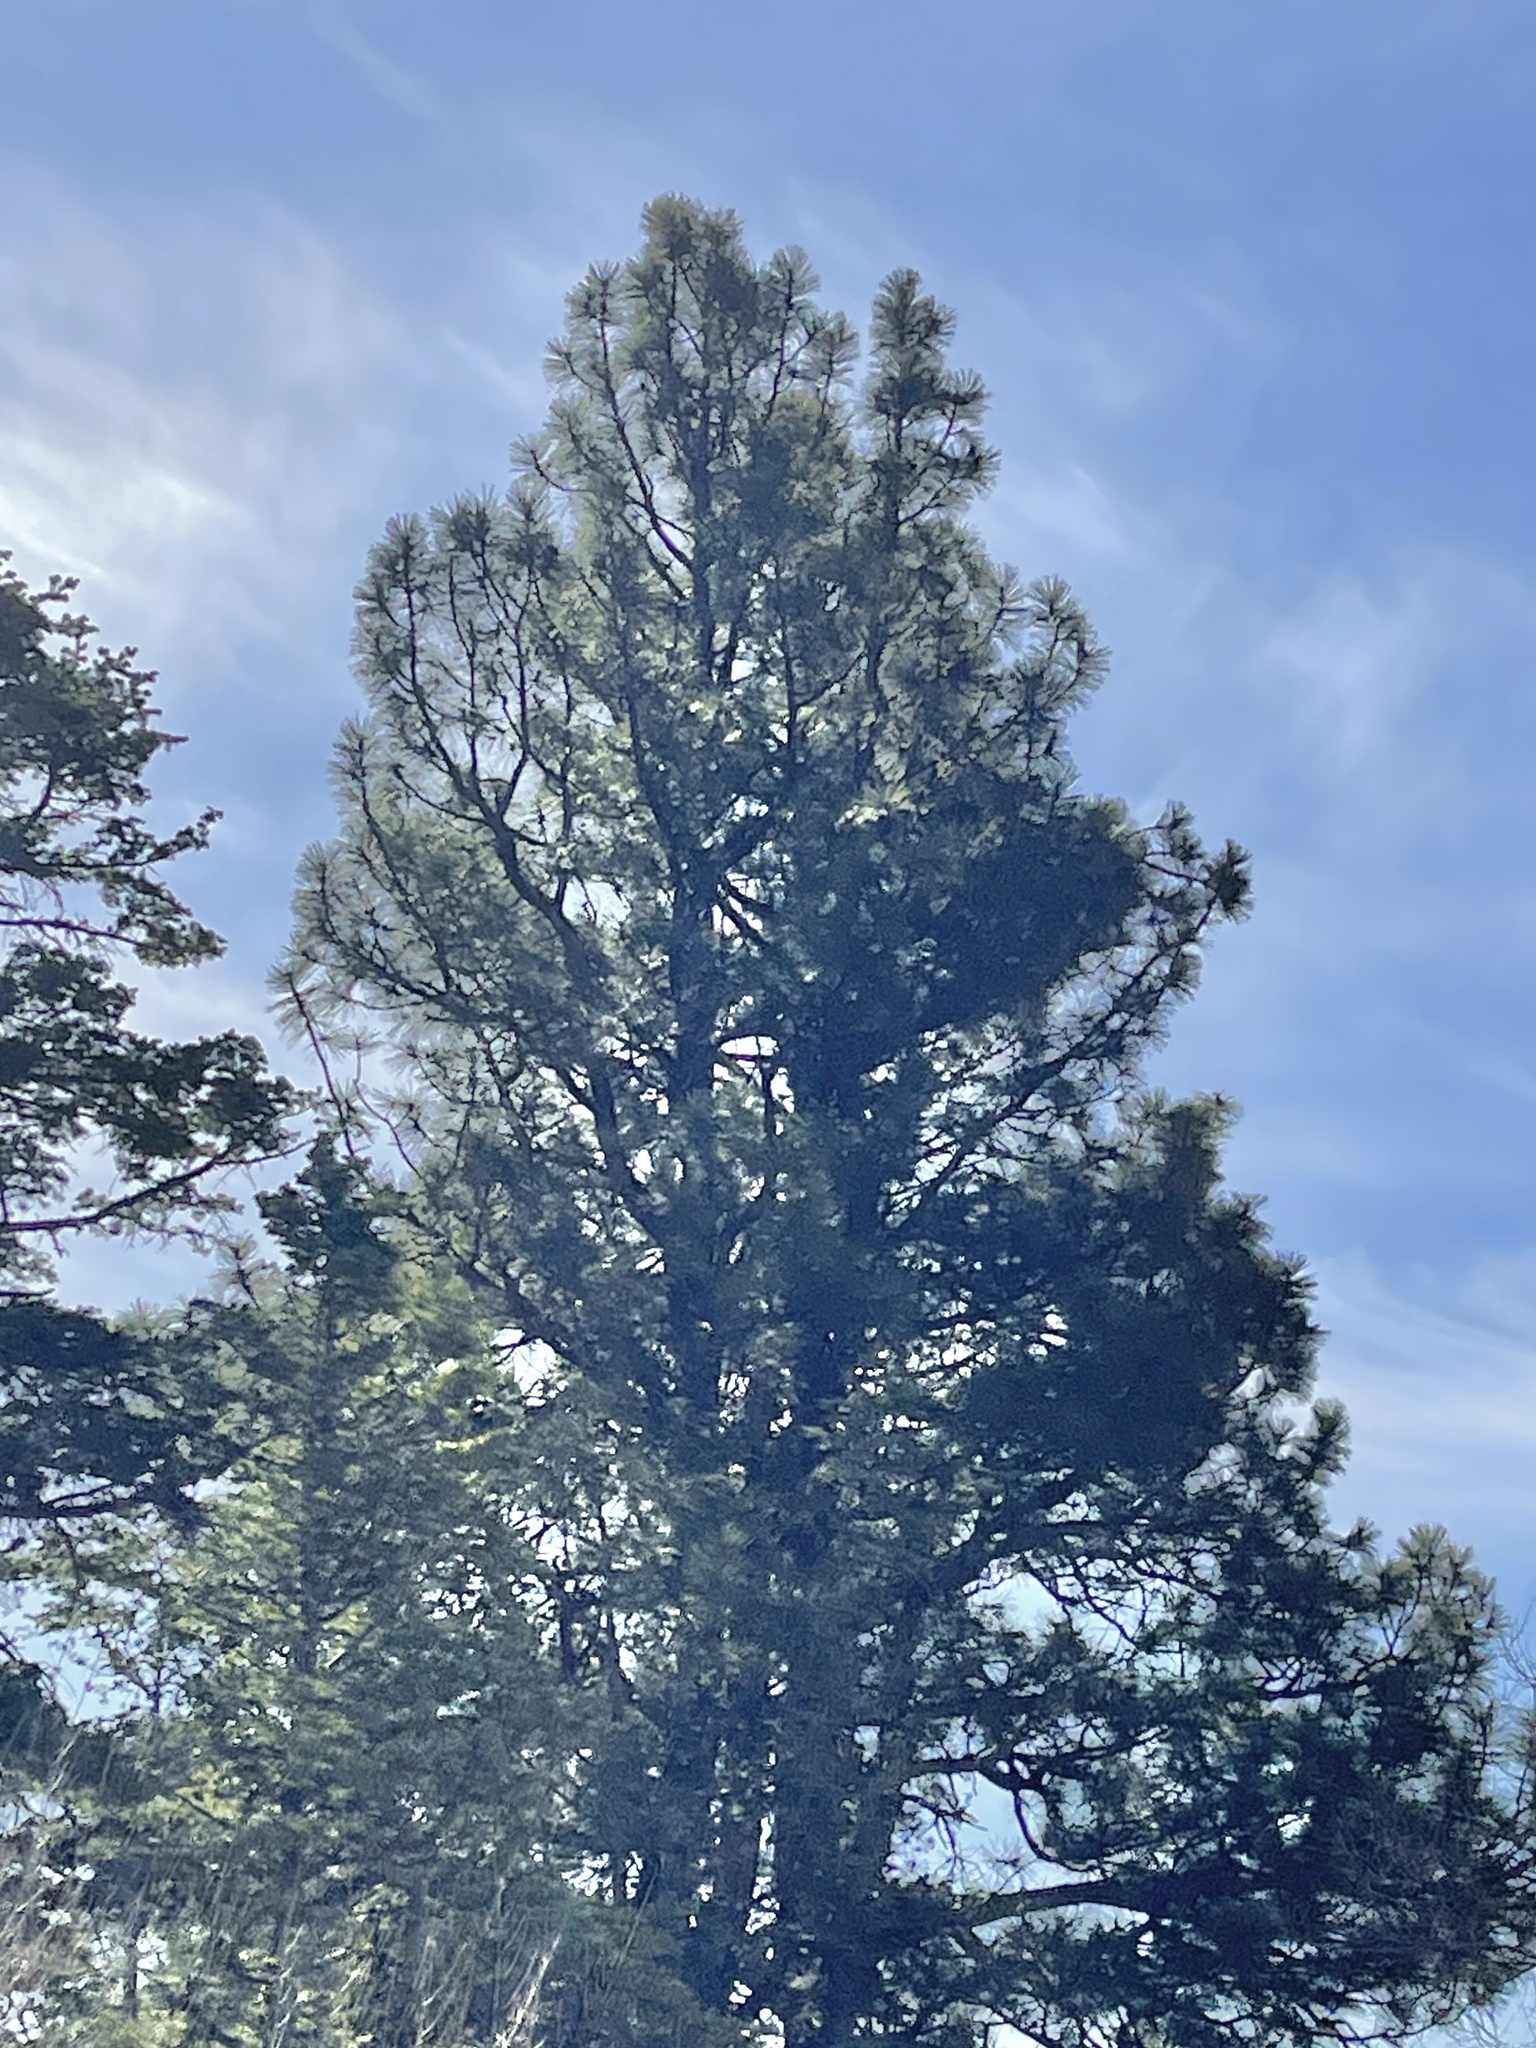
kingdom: Plantae
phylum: Tracheophyta
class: Pinopsida
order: Pinales
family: Pinaceae
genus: Pinus
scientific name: Pinus ponderosa
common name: Western yellow-pine
